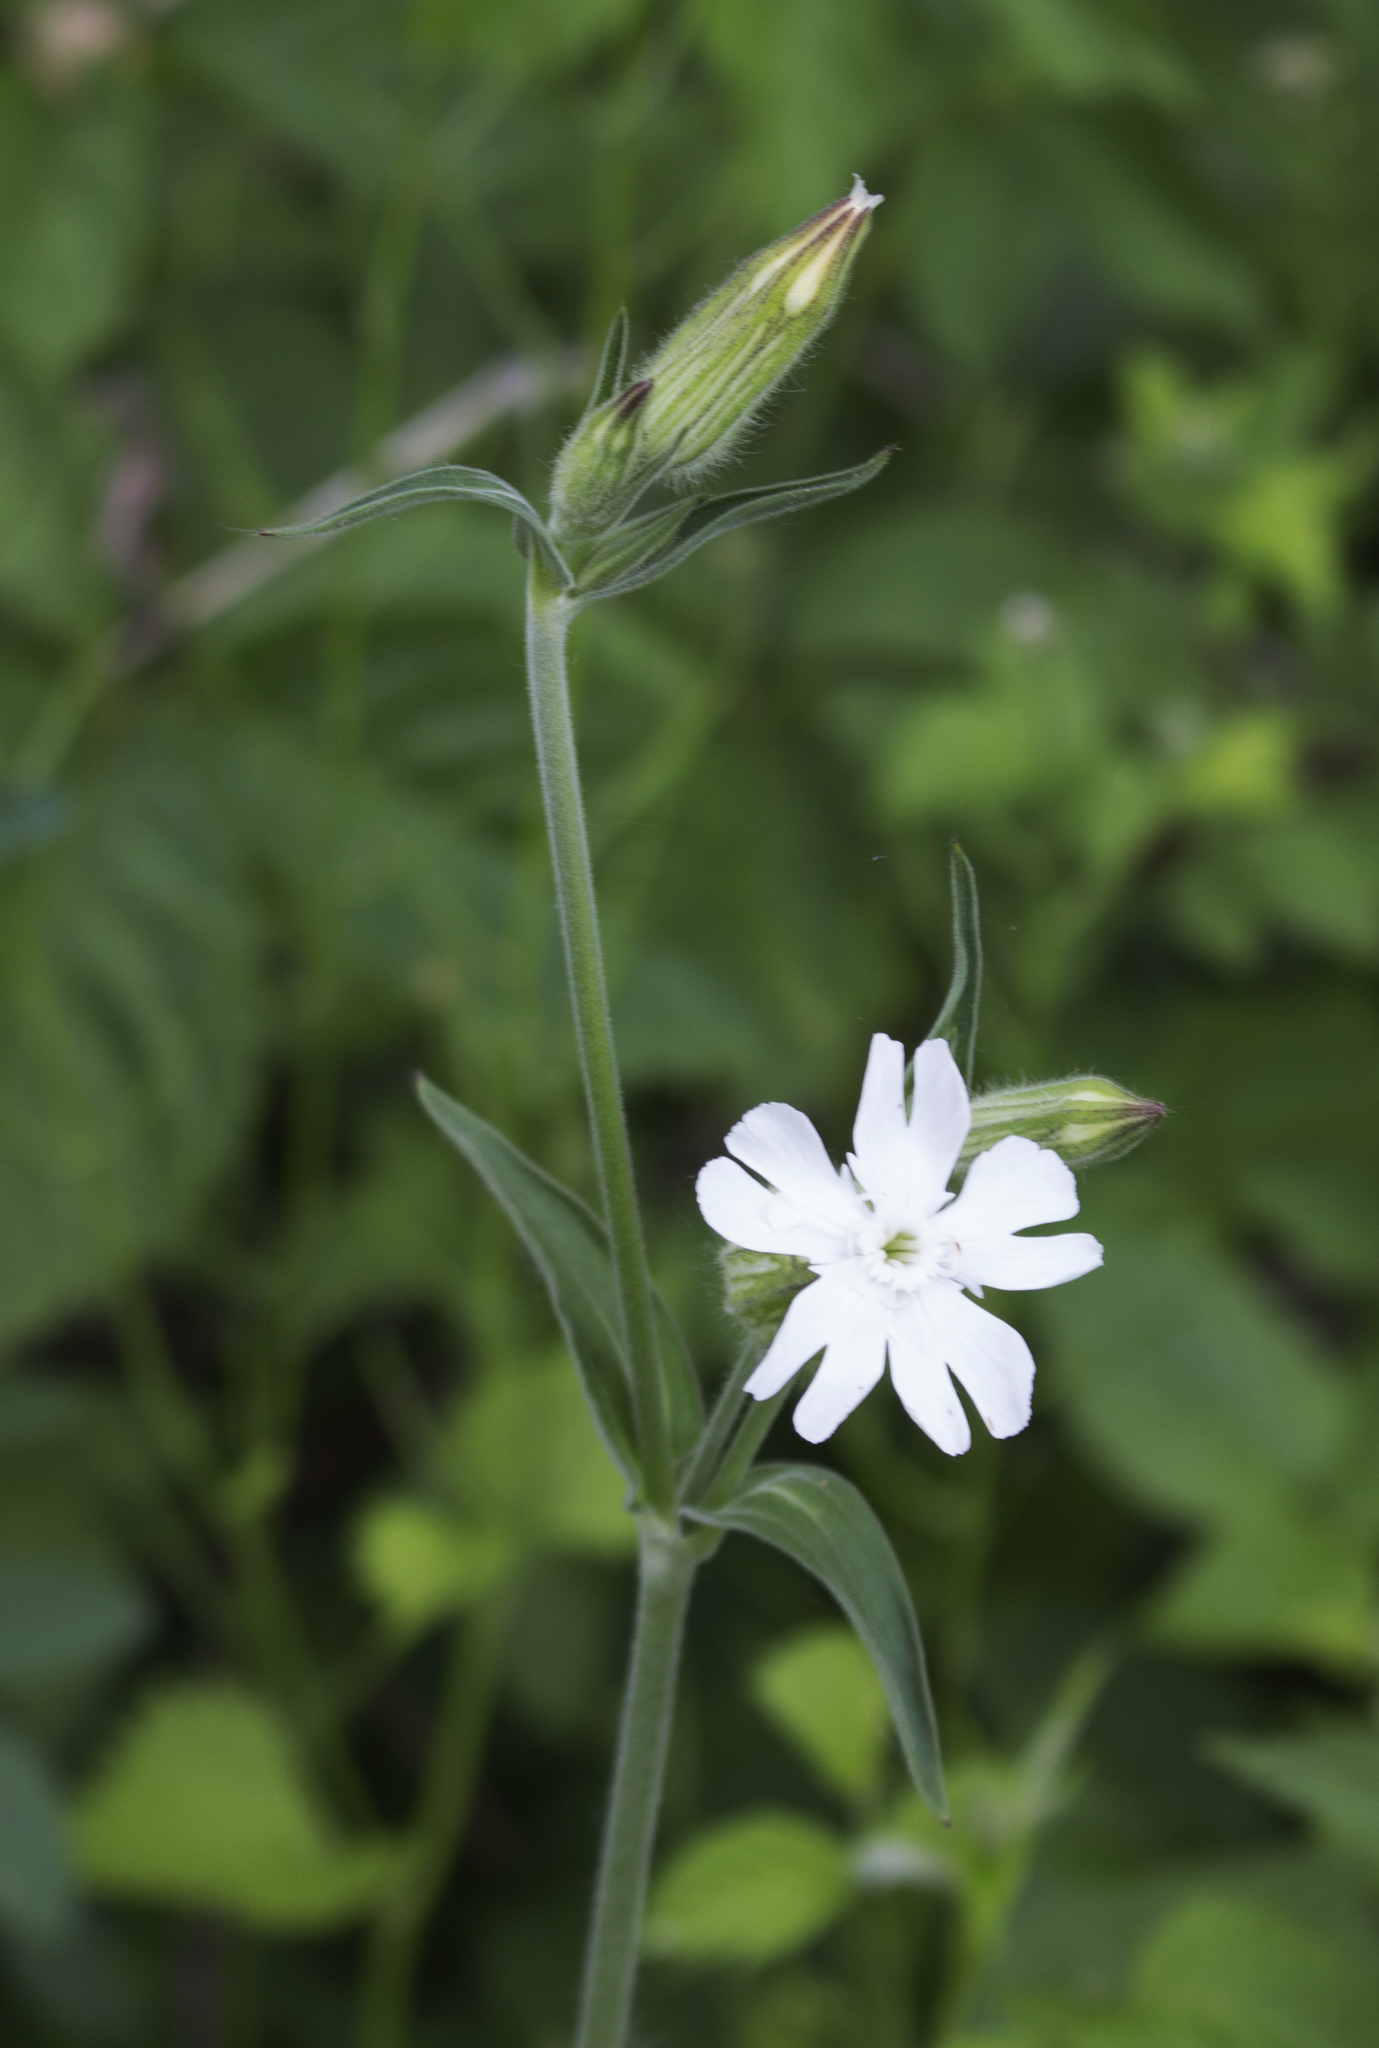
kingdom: Plantae
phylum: Tracheophyta
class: Magnoliopsida
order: Caryophyllales
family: Caryophyllaceae
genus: Silene
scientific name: Silene latifolia
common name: White campion
